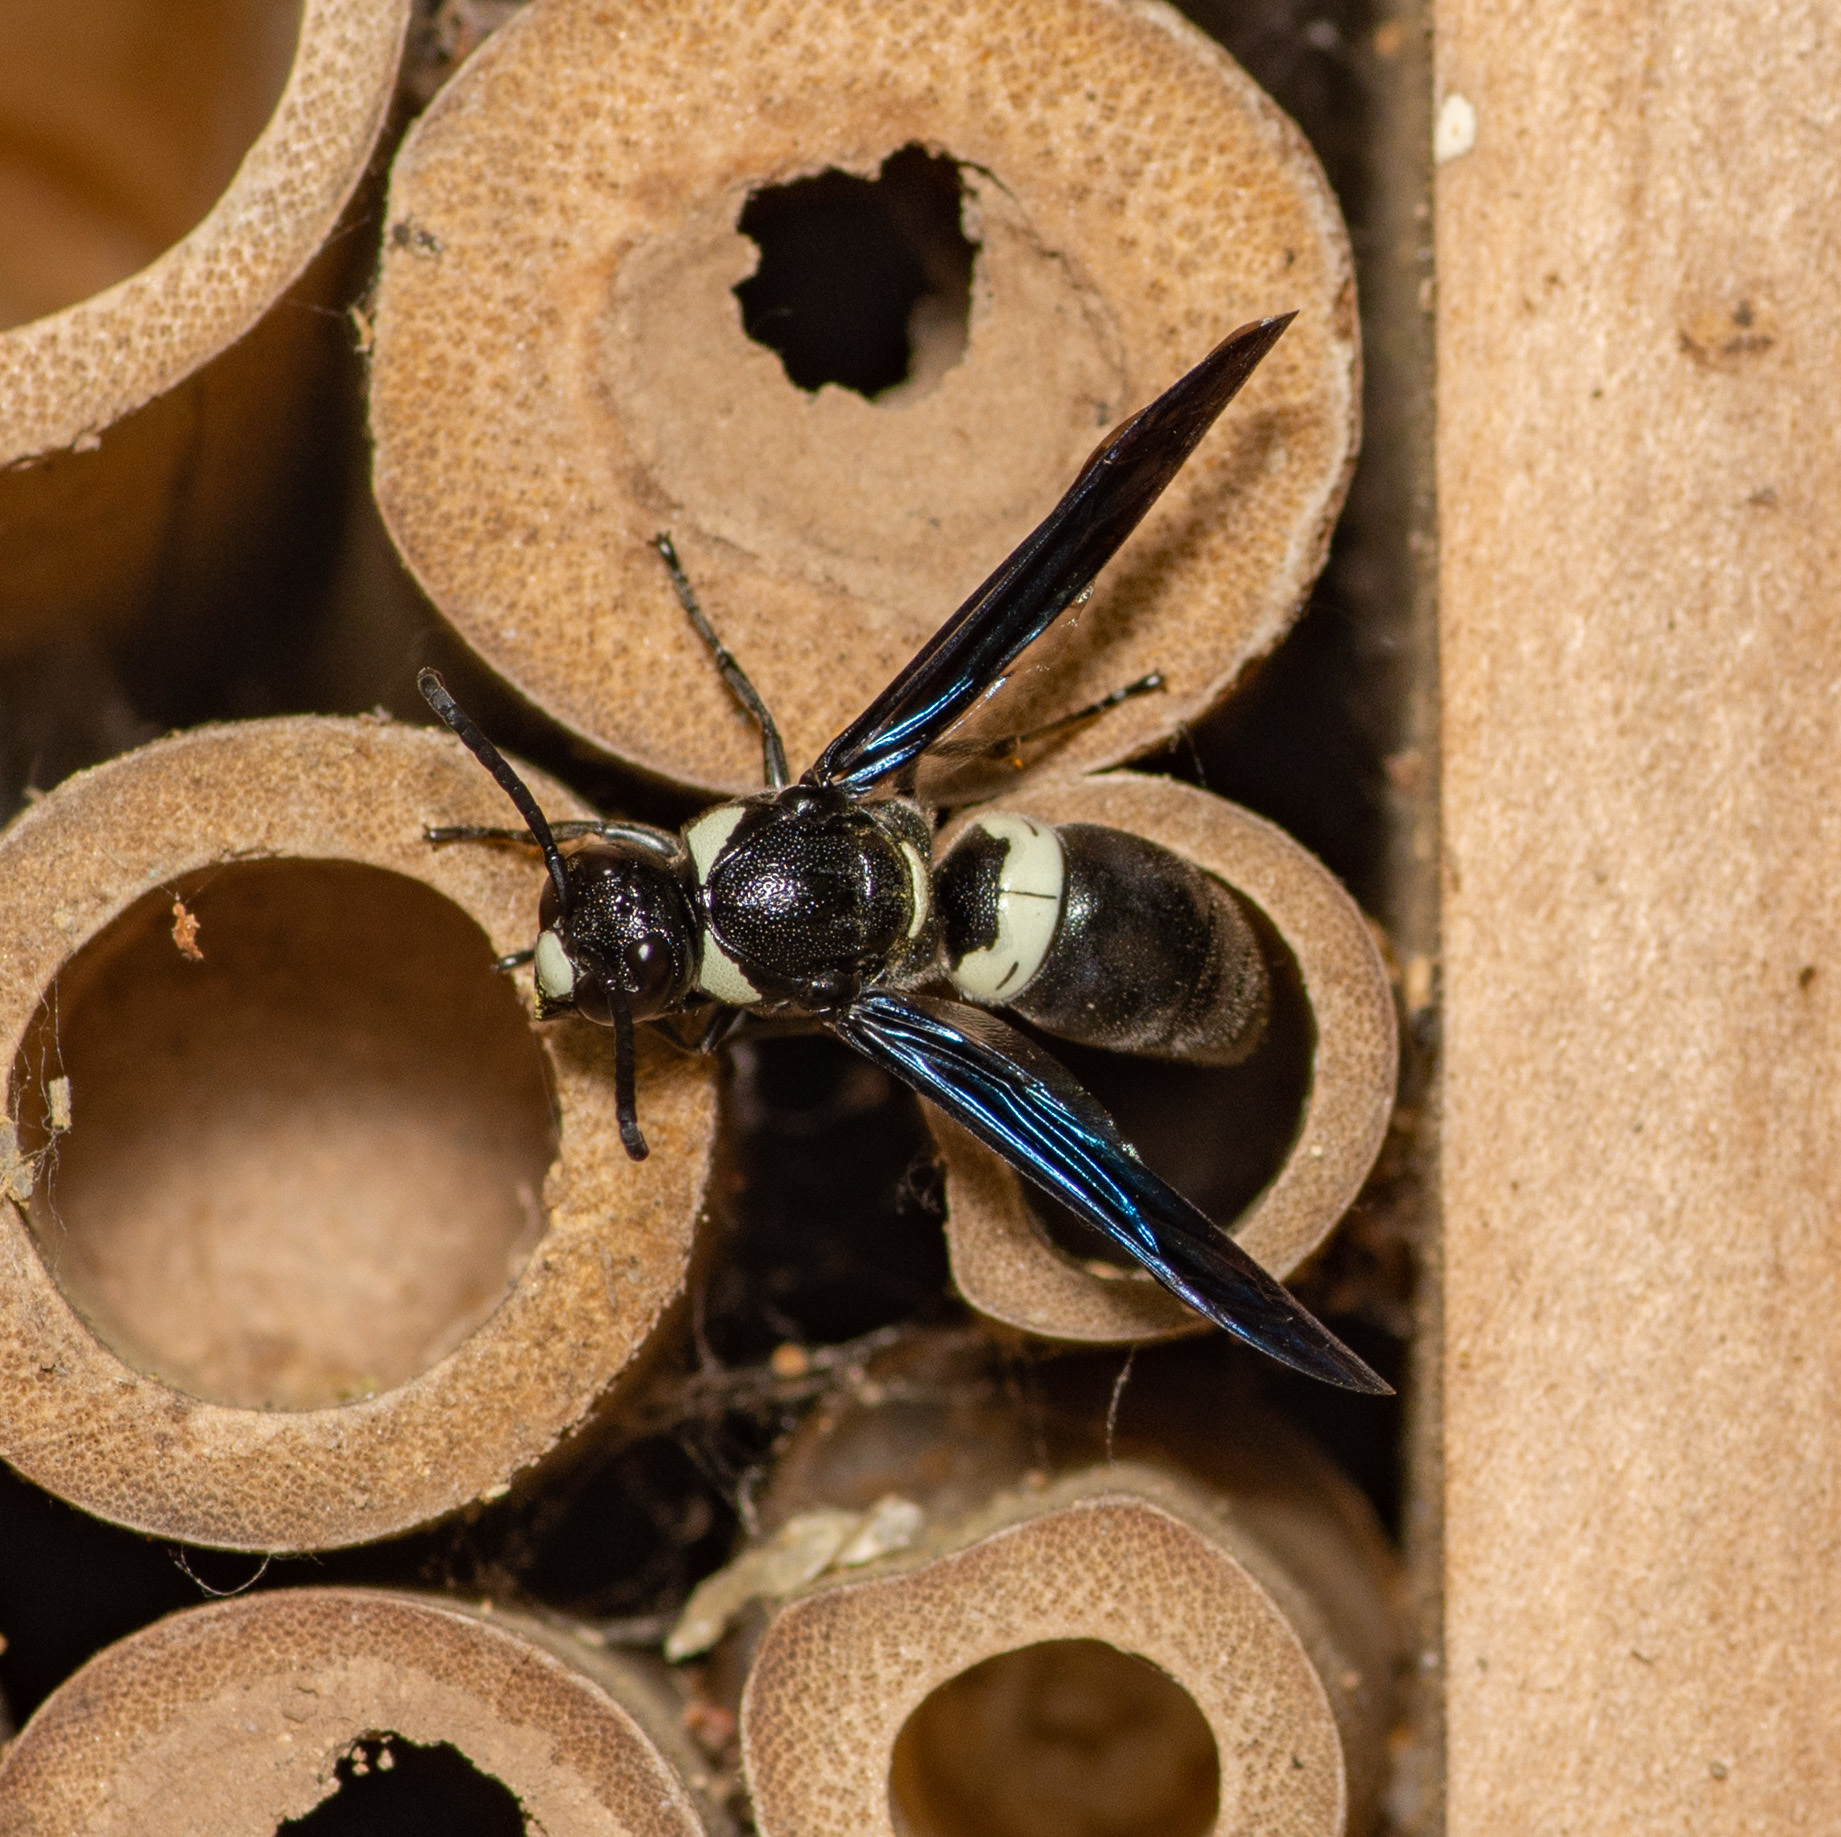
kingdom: Animalia
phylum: Arthropoda
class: Insecta
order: Hymenoptera
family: Eumenidae
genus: Monobia
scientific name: Monobia quadridens
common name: Four-toothed mason wasp
